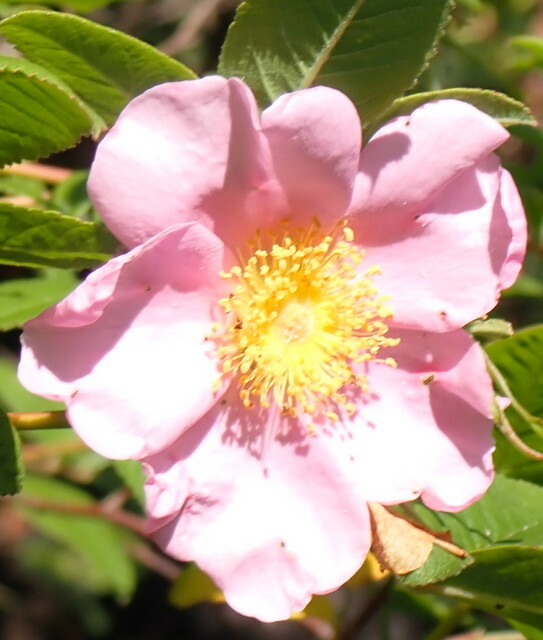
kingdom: Plantae
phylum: Tracheophyta
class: Magnoliopsida
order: Rosales
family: Rosaceae
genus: Rosa
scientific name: Rosa palustris
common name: Swamp rose
